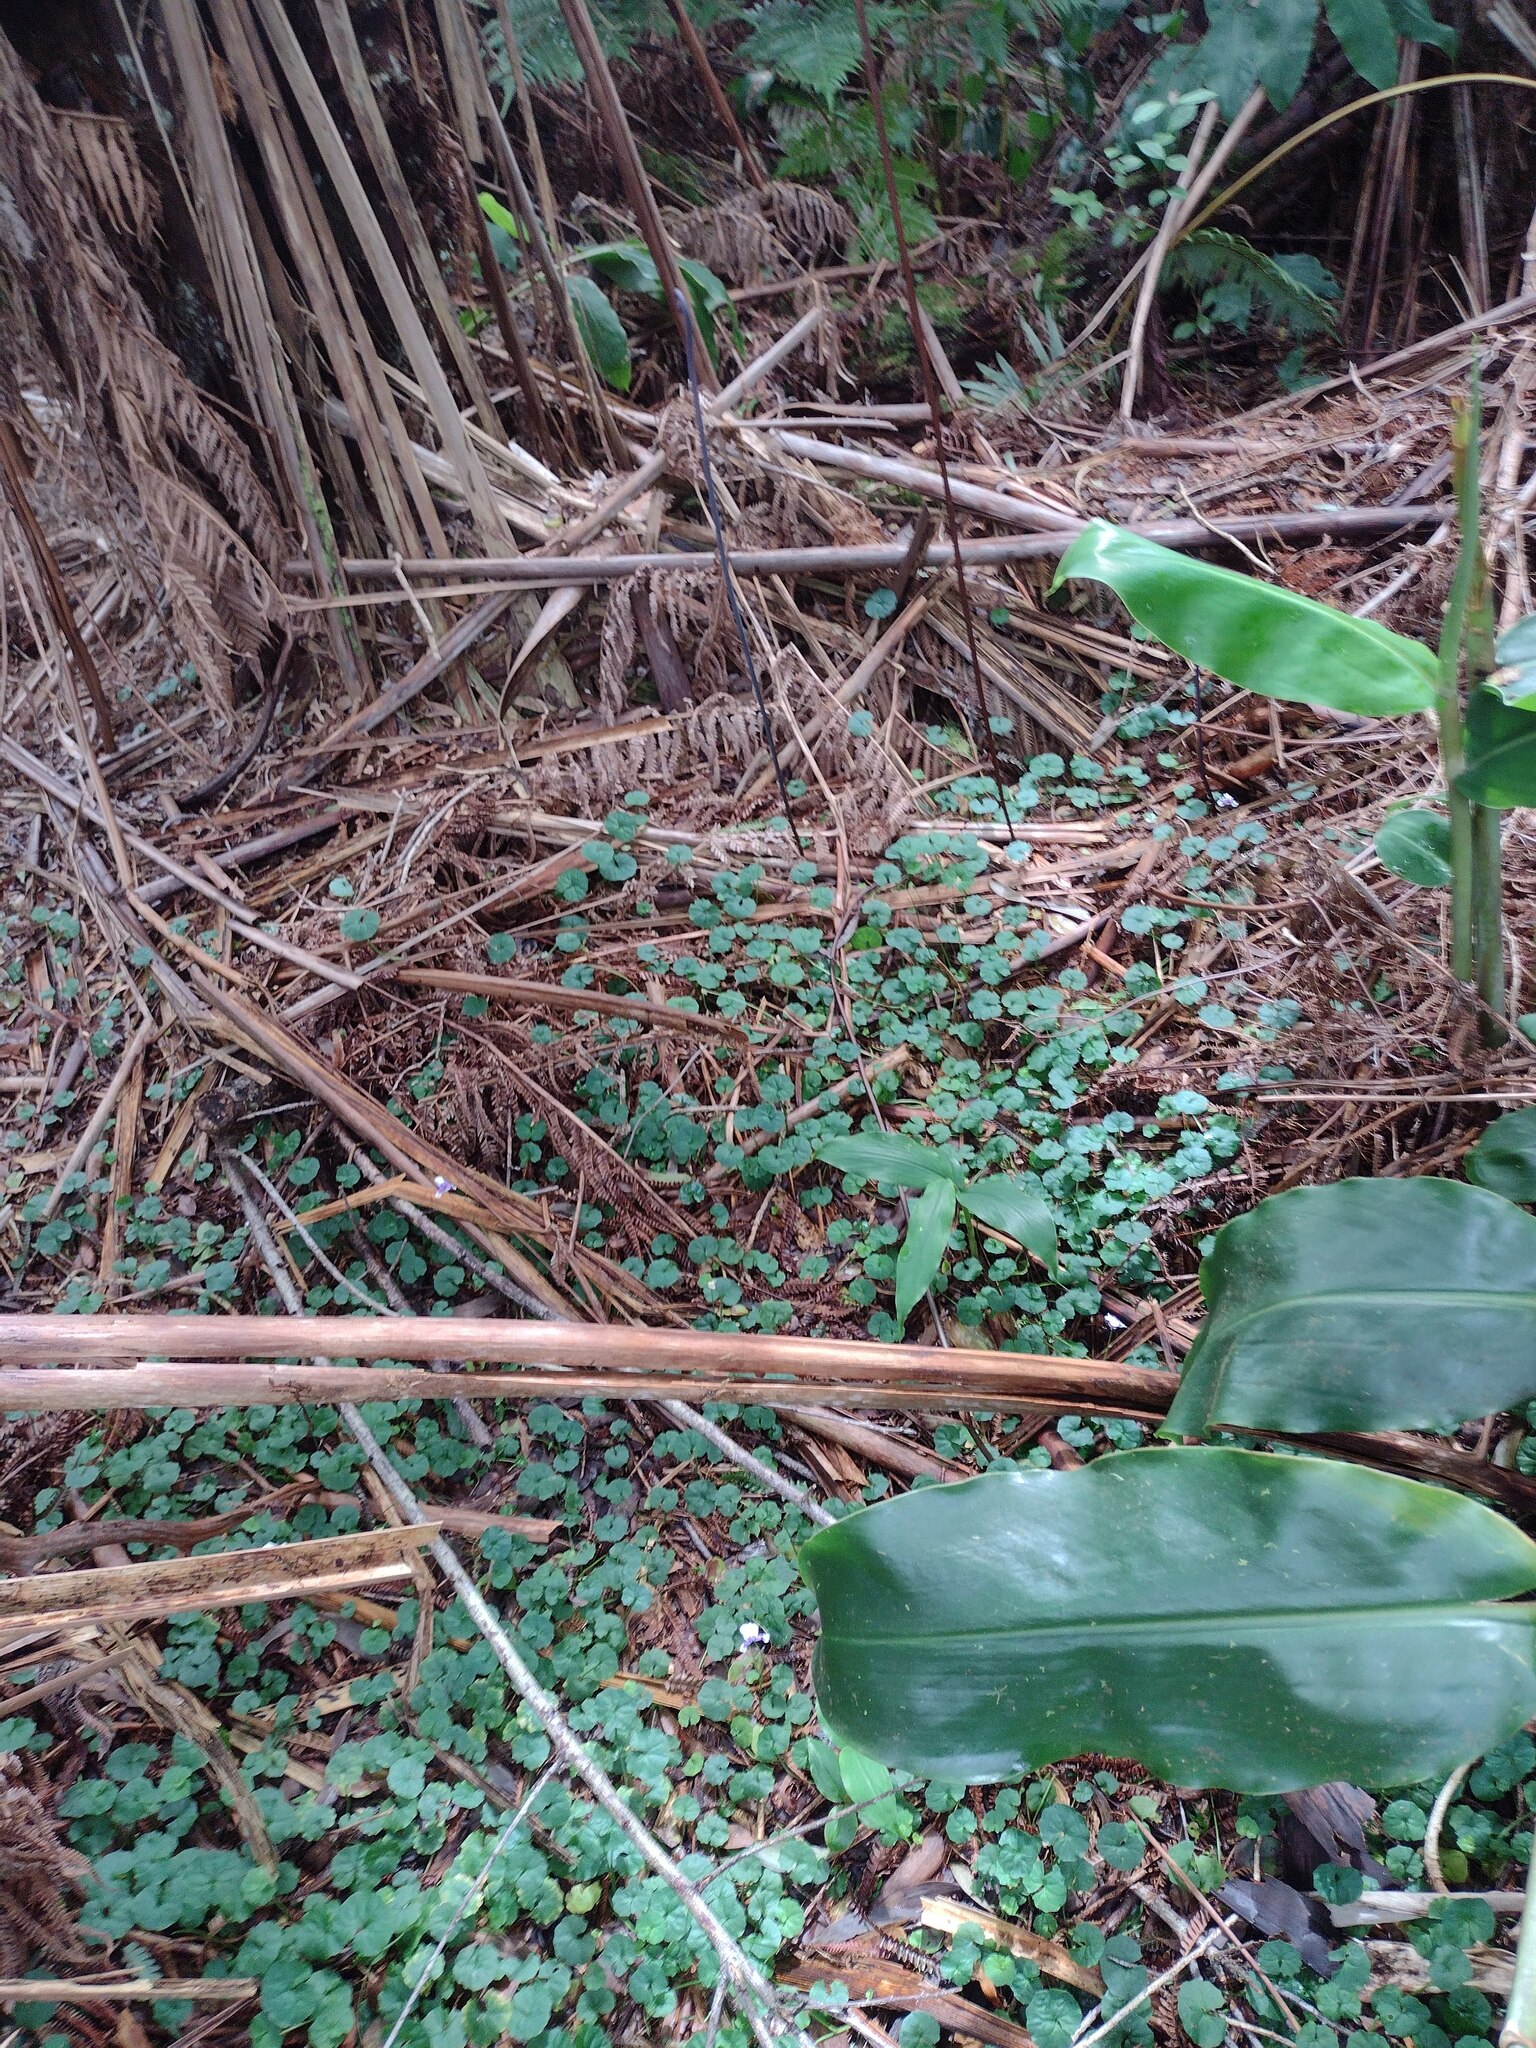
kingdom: Plantae
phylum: Tracheophyta
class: Magnoliopsida
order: Malpighiales
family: Violaceae
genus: Viola
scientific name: Viola banksii
